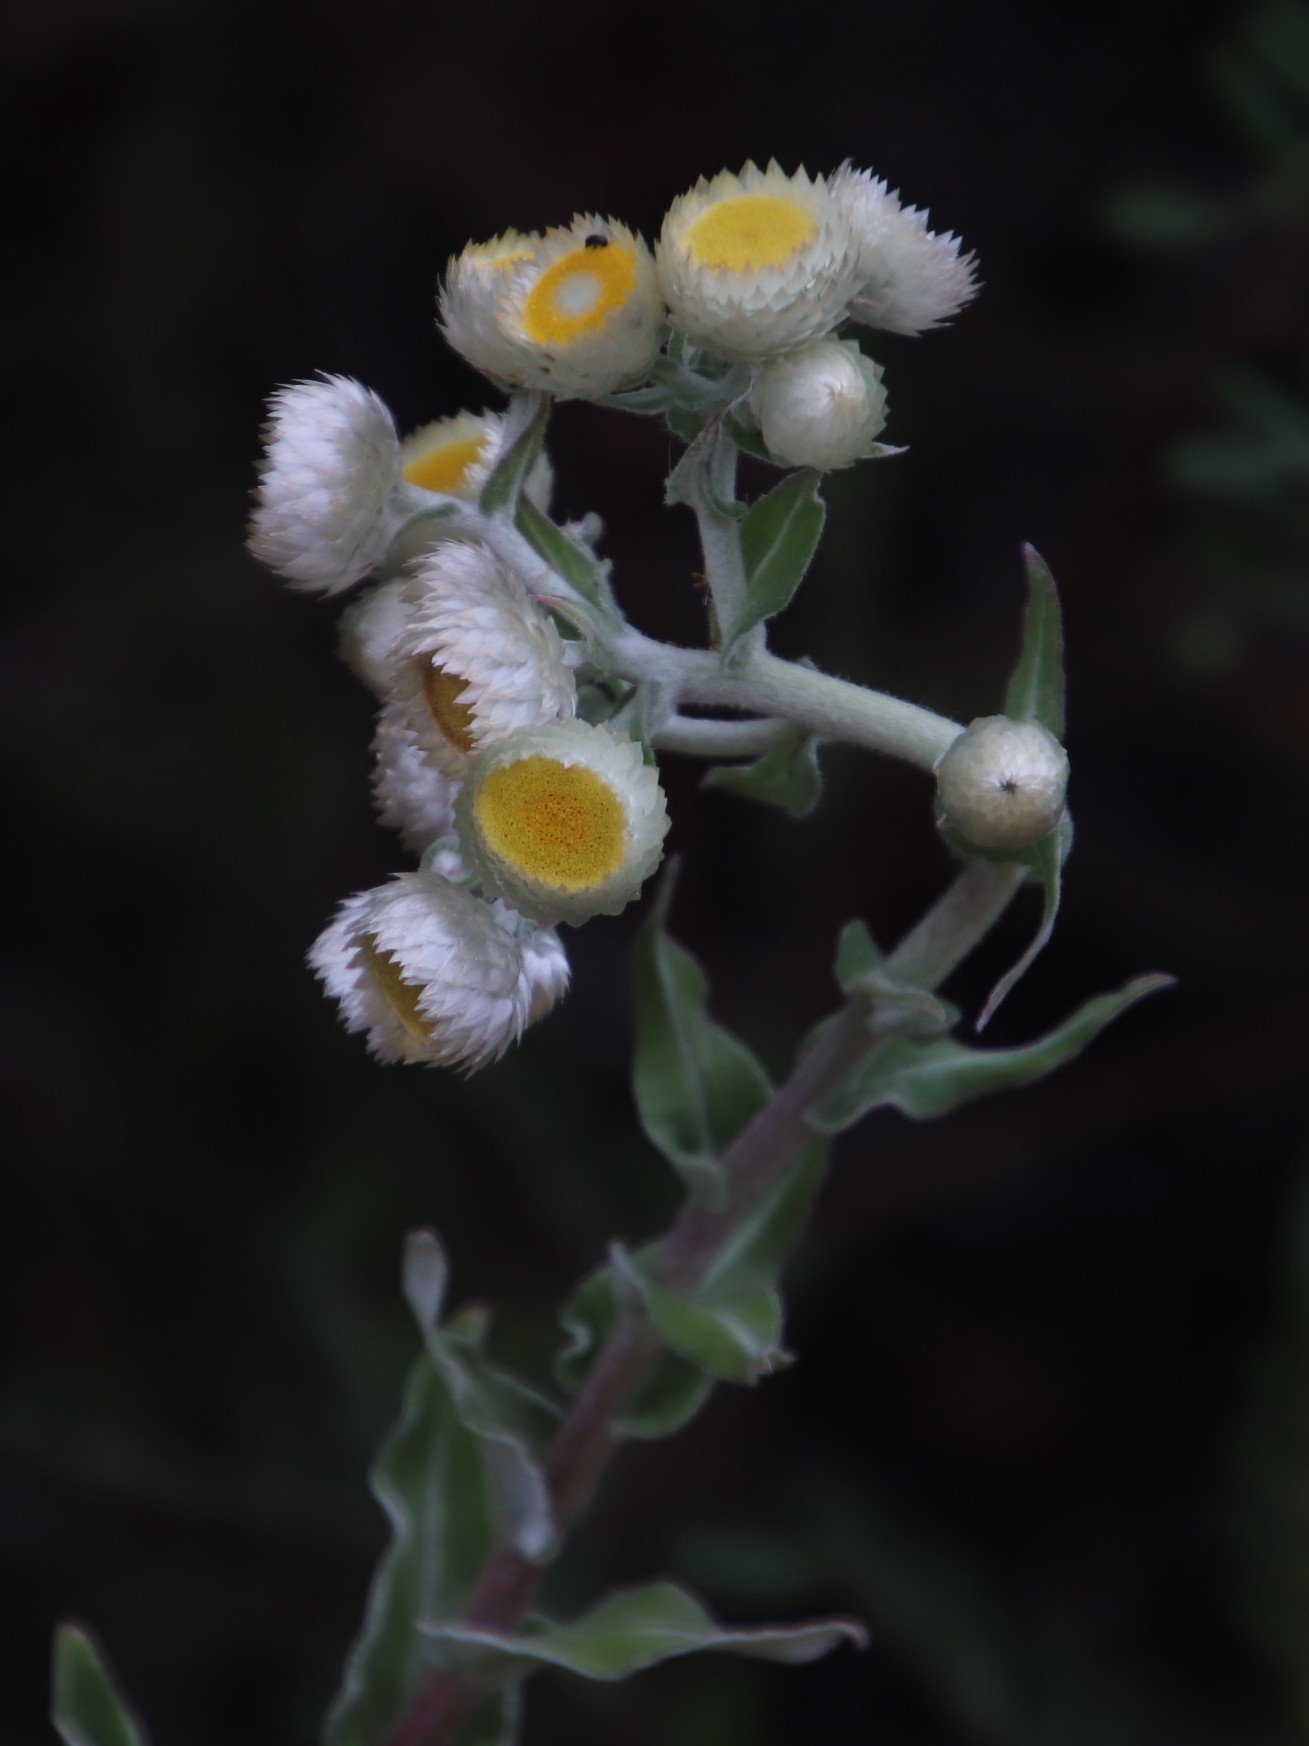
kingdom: Plantae
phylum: Tracheophyta
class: Magnoliopsida
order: Asterales
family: Asteraceae
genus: Helichrysum
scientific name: Helichrysum foetidum
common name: Stinking everlasting
